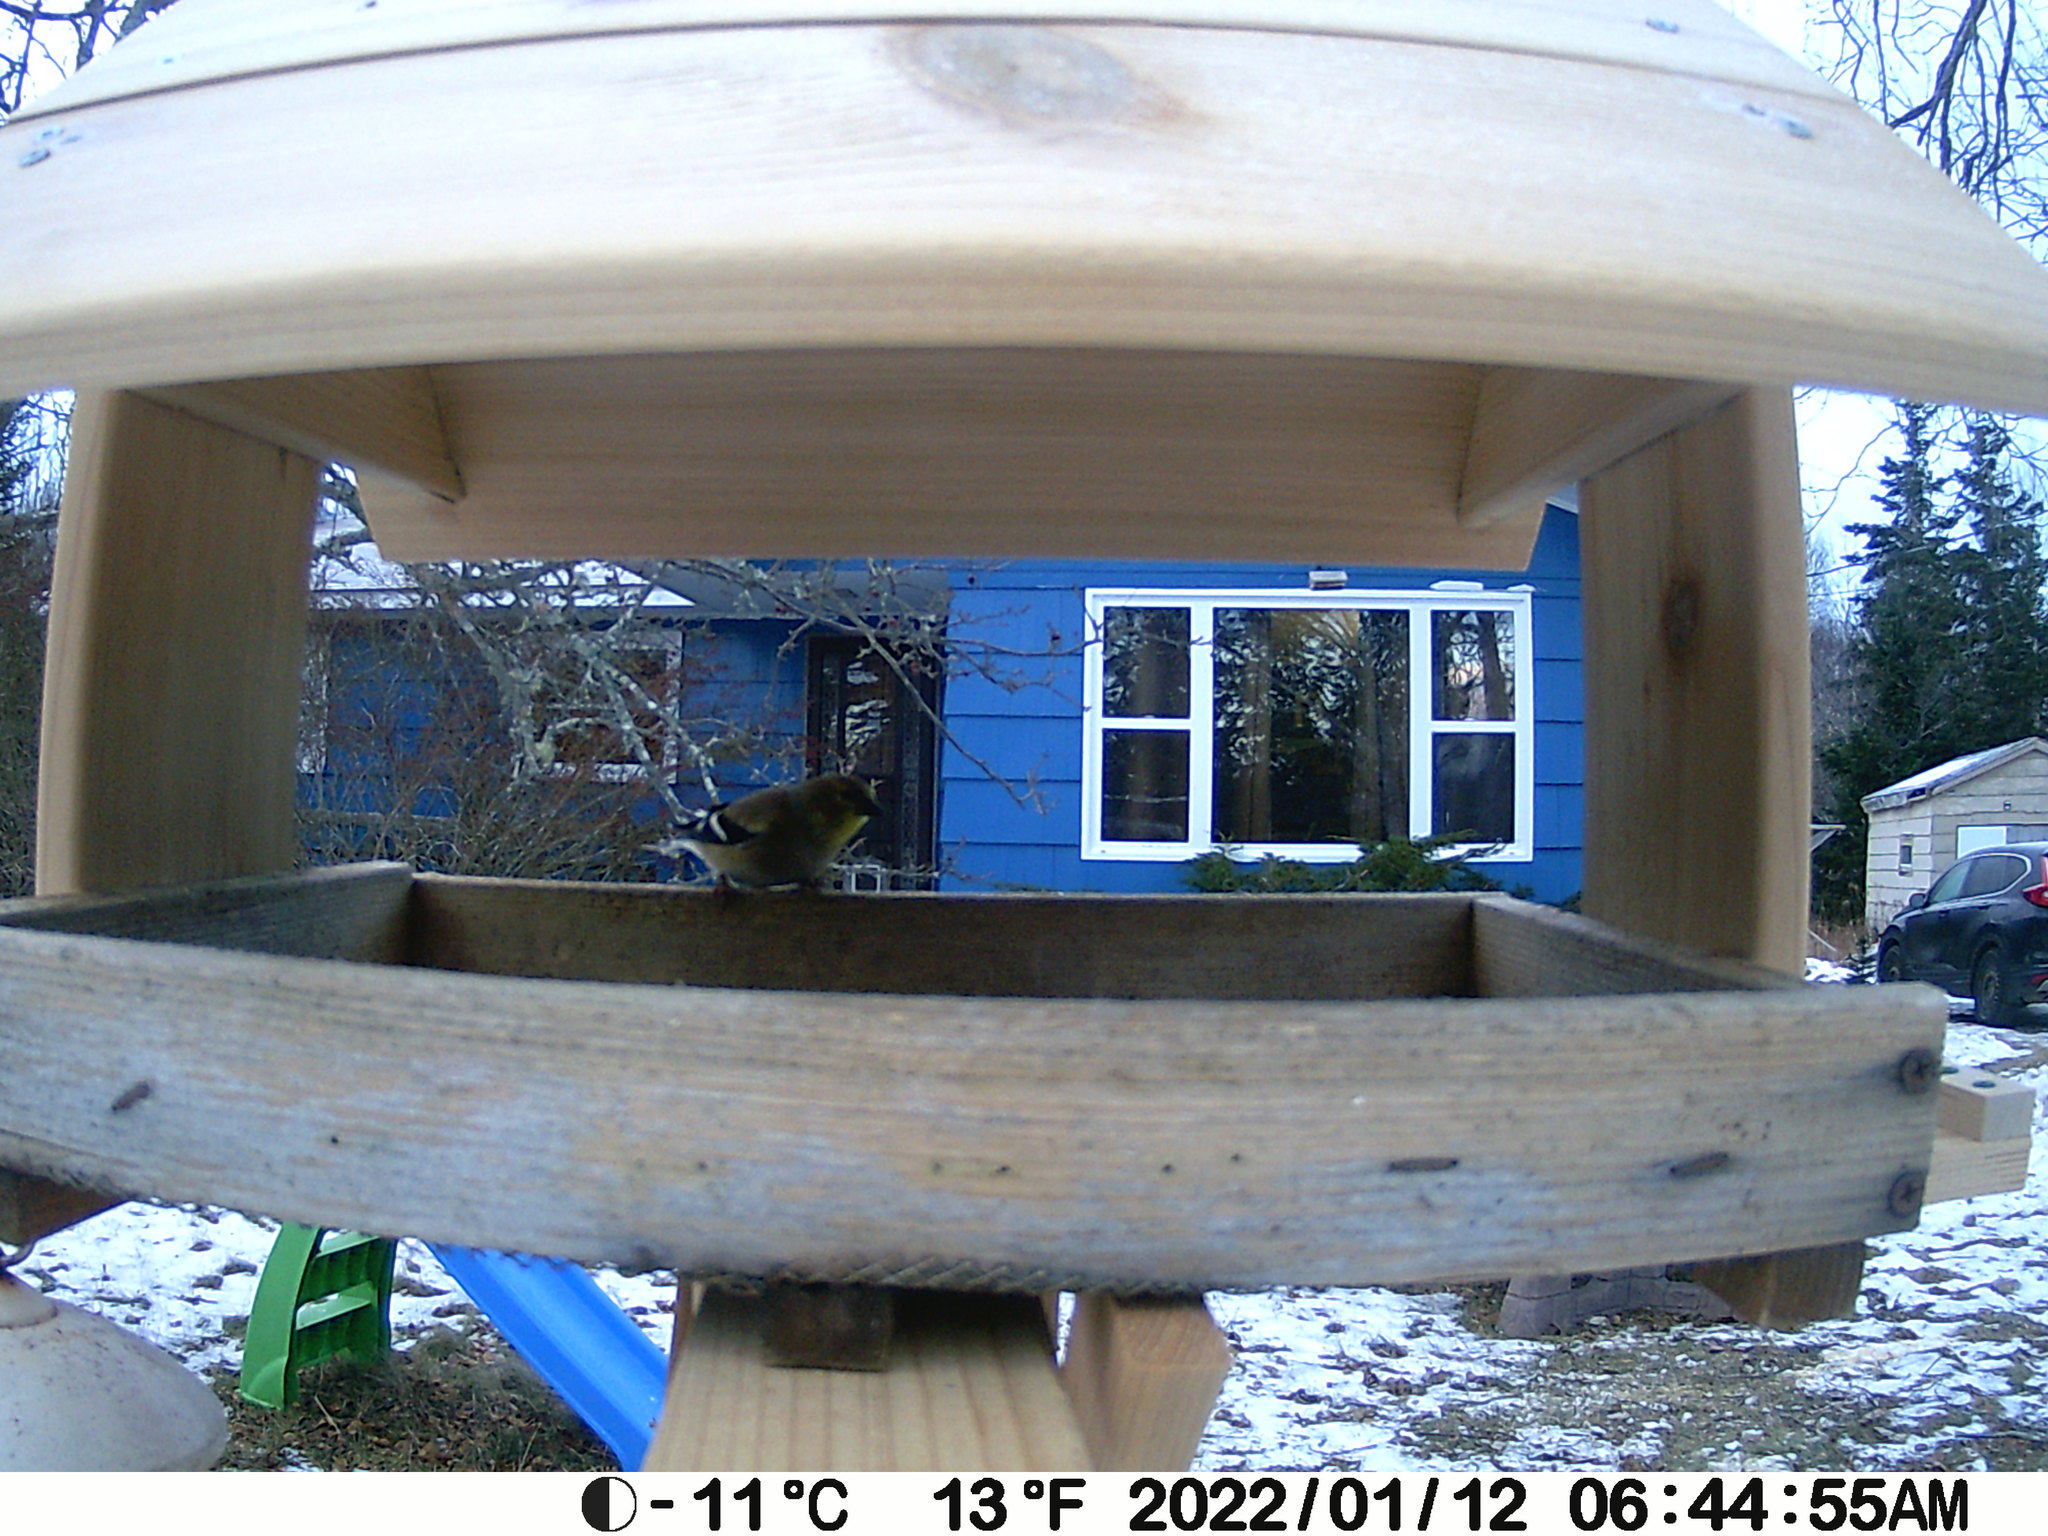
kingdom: Animalia
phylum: Chordata
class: Aves
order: Passeriformes
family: Fringillidae
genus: Spinus
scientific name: Spinus tristis
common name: American goldfinch
